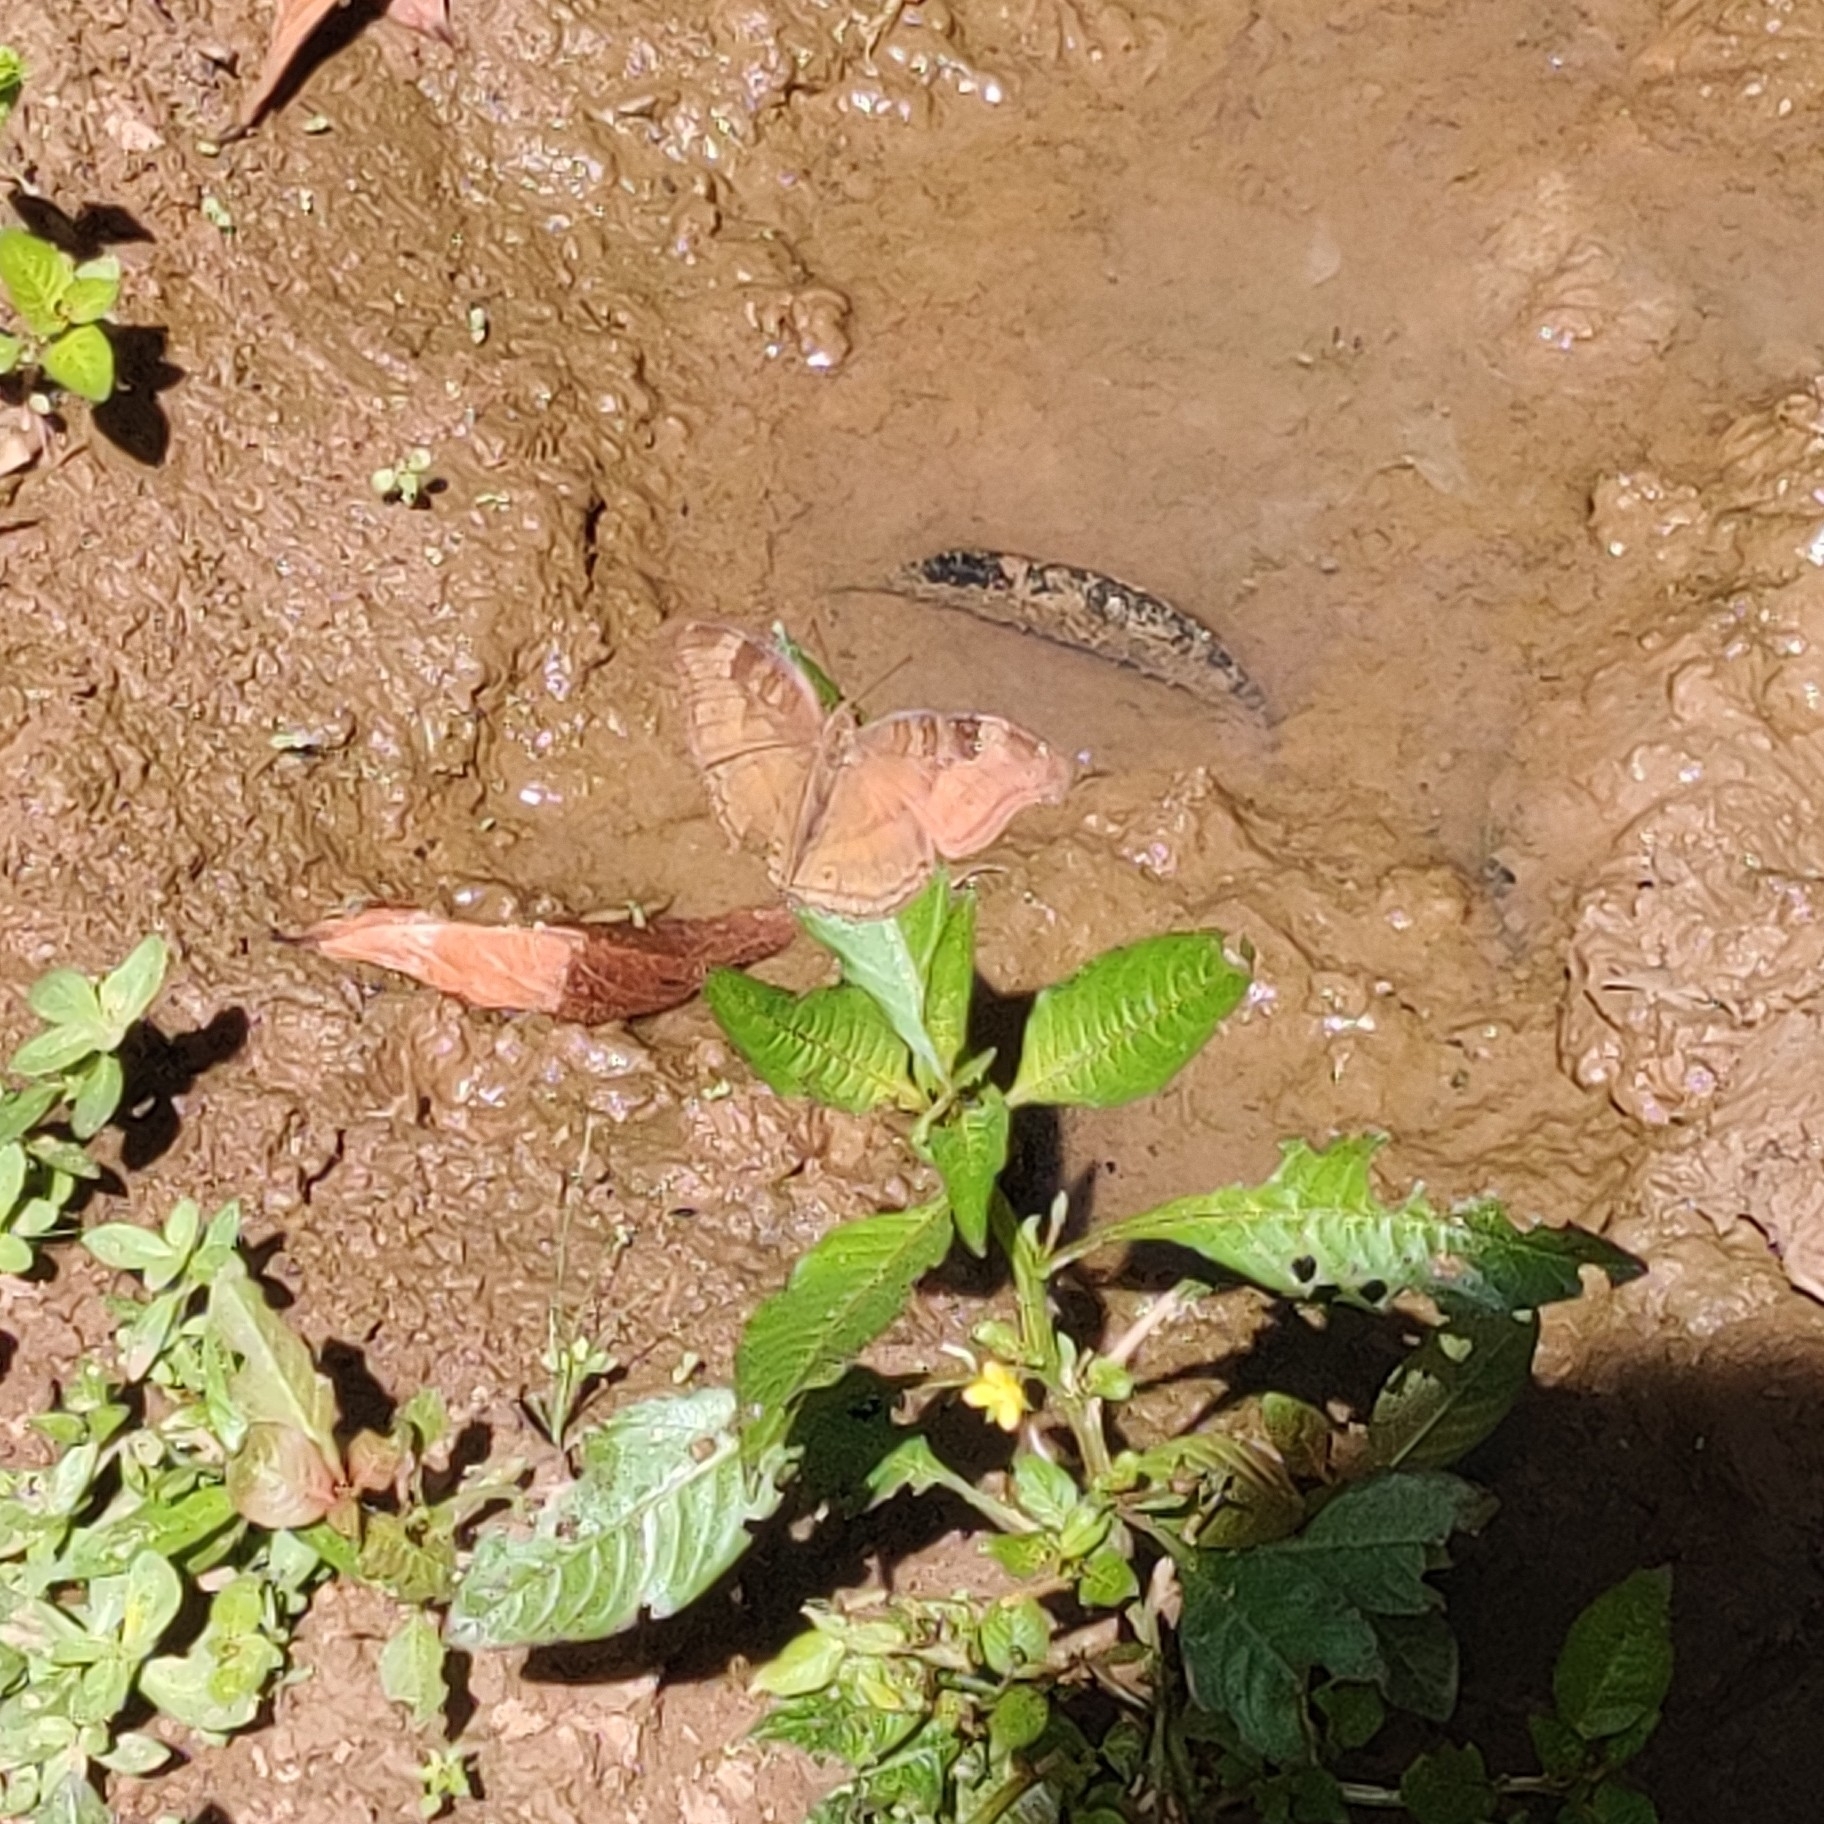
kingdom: Animalia
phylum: Arthropoda
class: Insecta
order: Lepidoptera
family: Nymphalidae
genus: Junonia
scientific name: Junonia iphita
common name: Chocolate pansy
